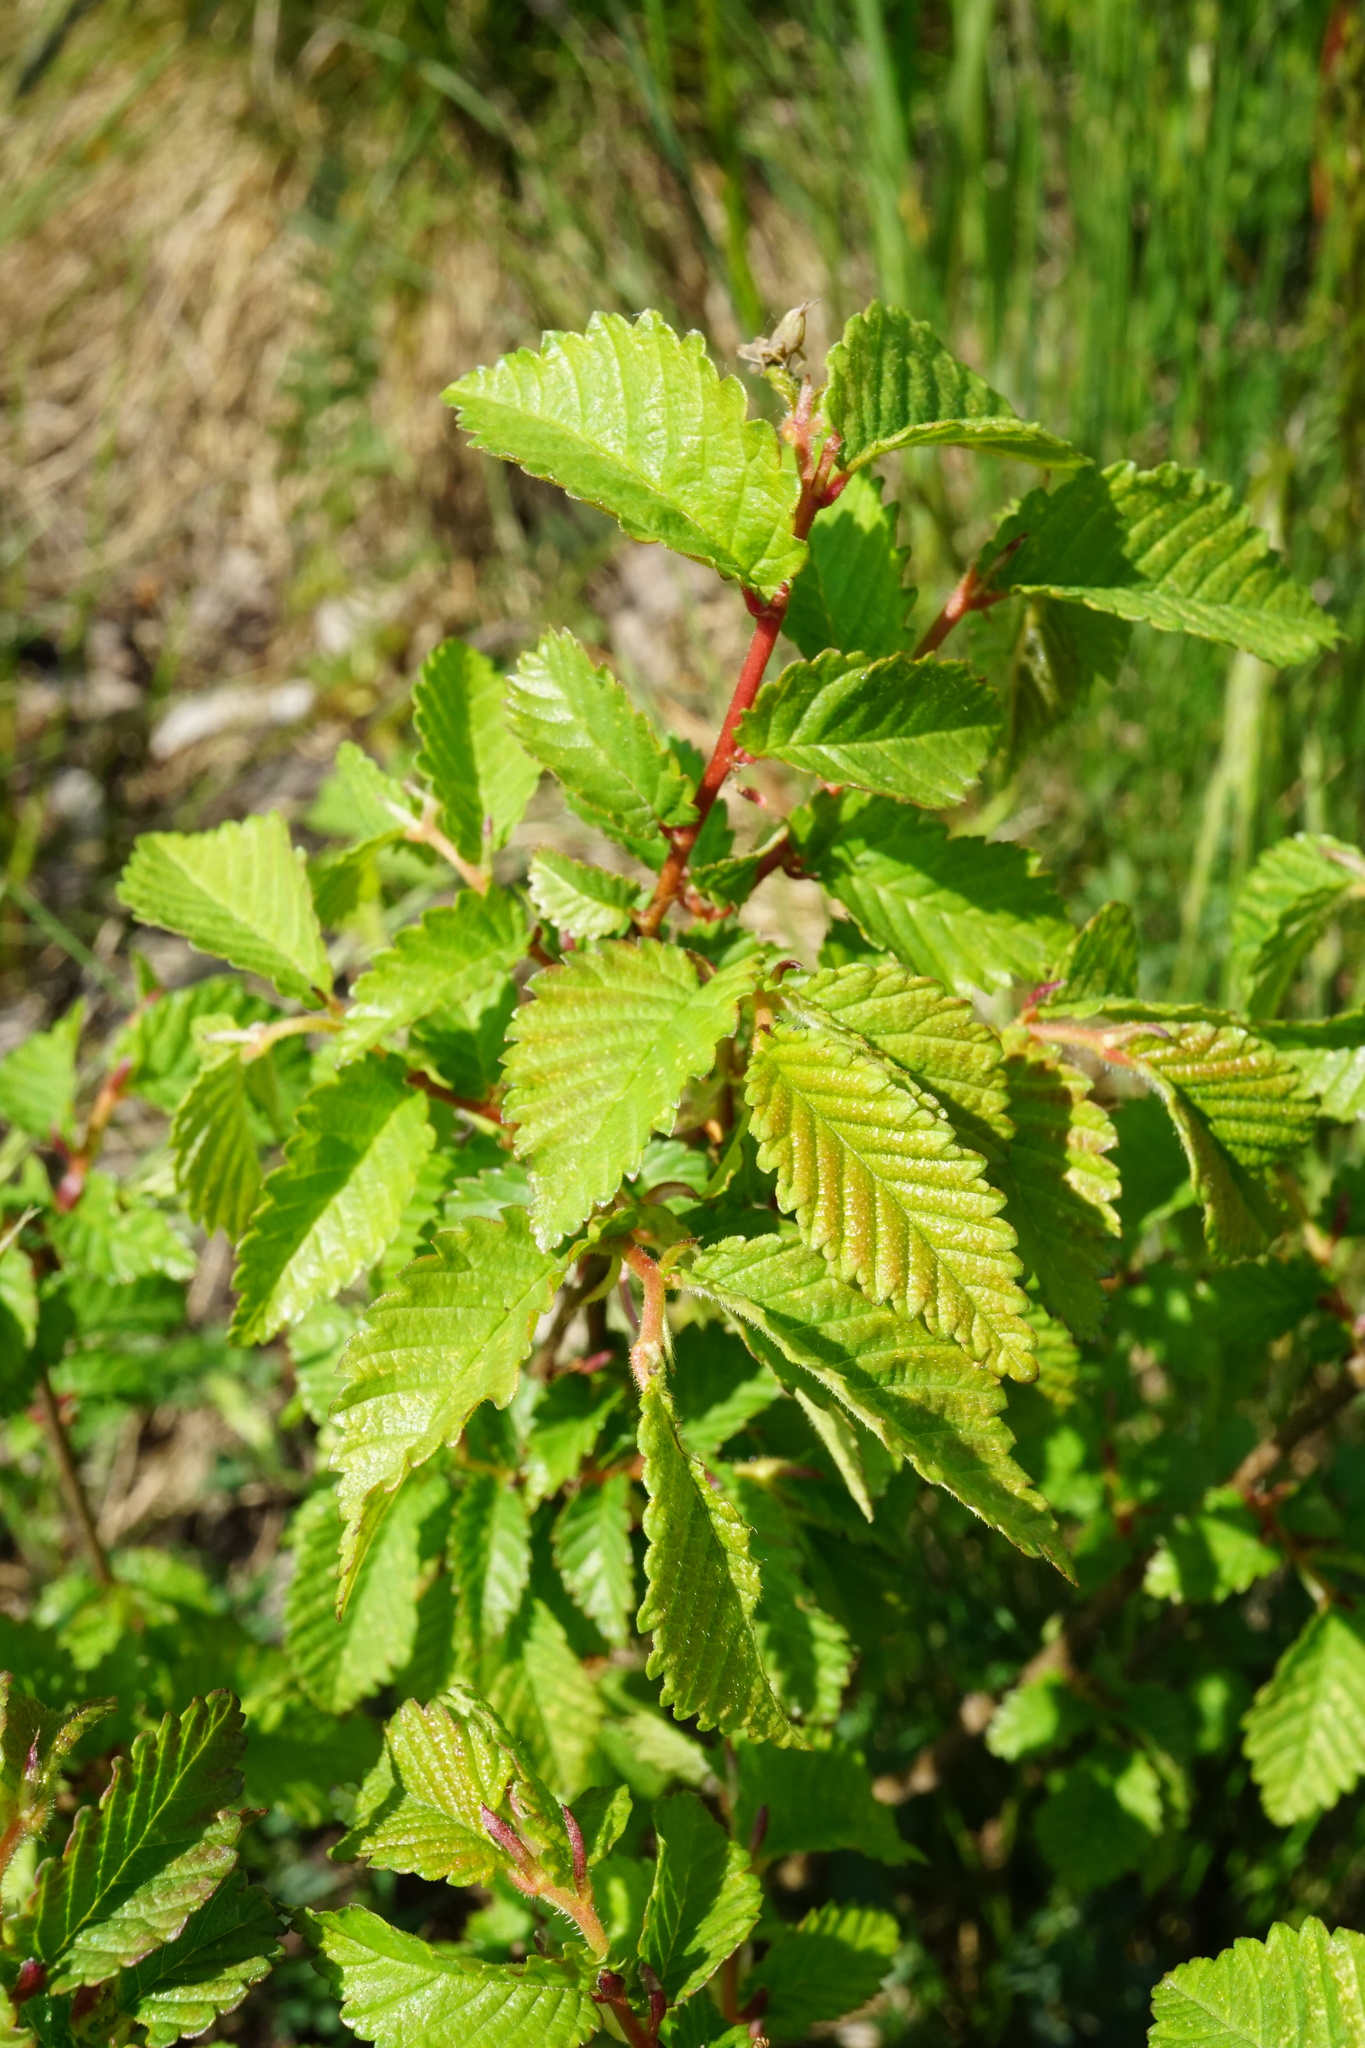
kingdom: Plantae
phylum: Tracheophyta
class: Magnoliopsida
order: Rosales
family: Ulmaceae
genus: Ulmus
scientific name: Ulmus minor
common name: Small-leaved elm
